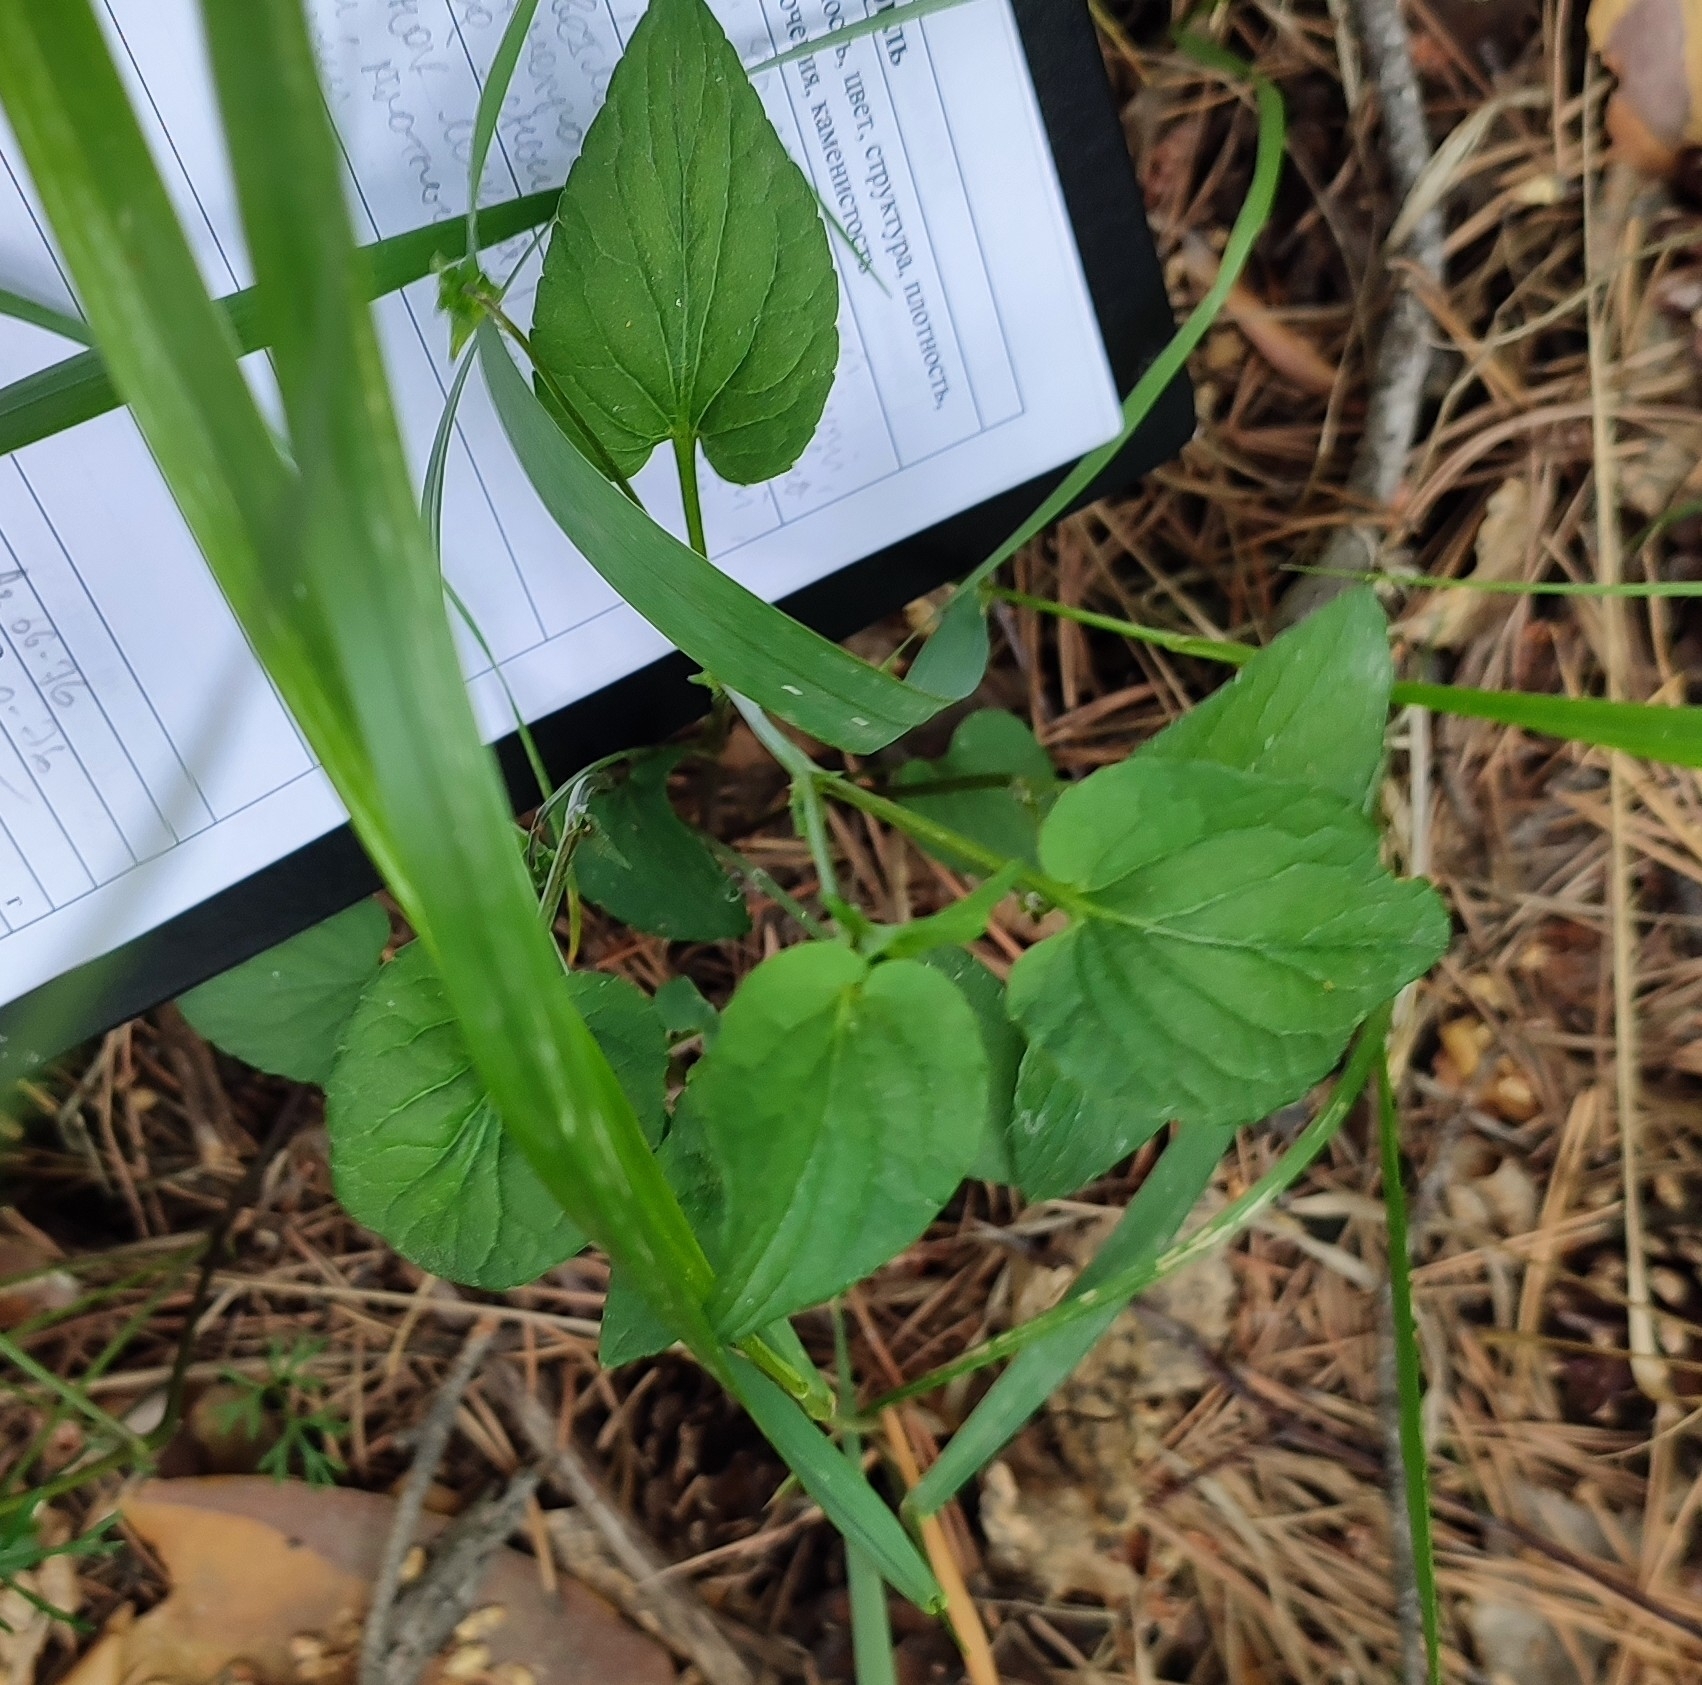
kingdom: Plantae
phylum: Tracheophyta
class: Magnoliopsida
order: Malpighiales
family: Violaceae
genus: Viola
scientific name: Viola
